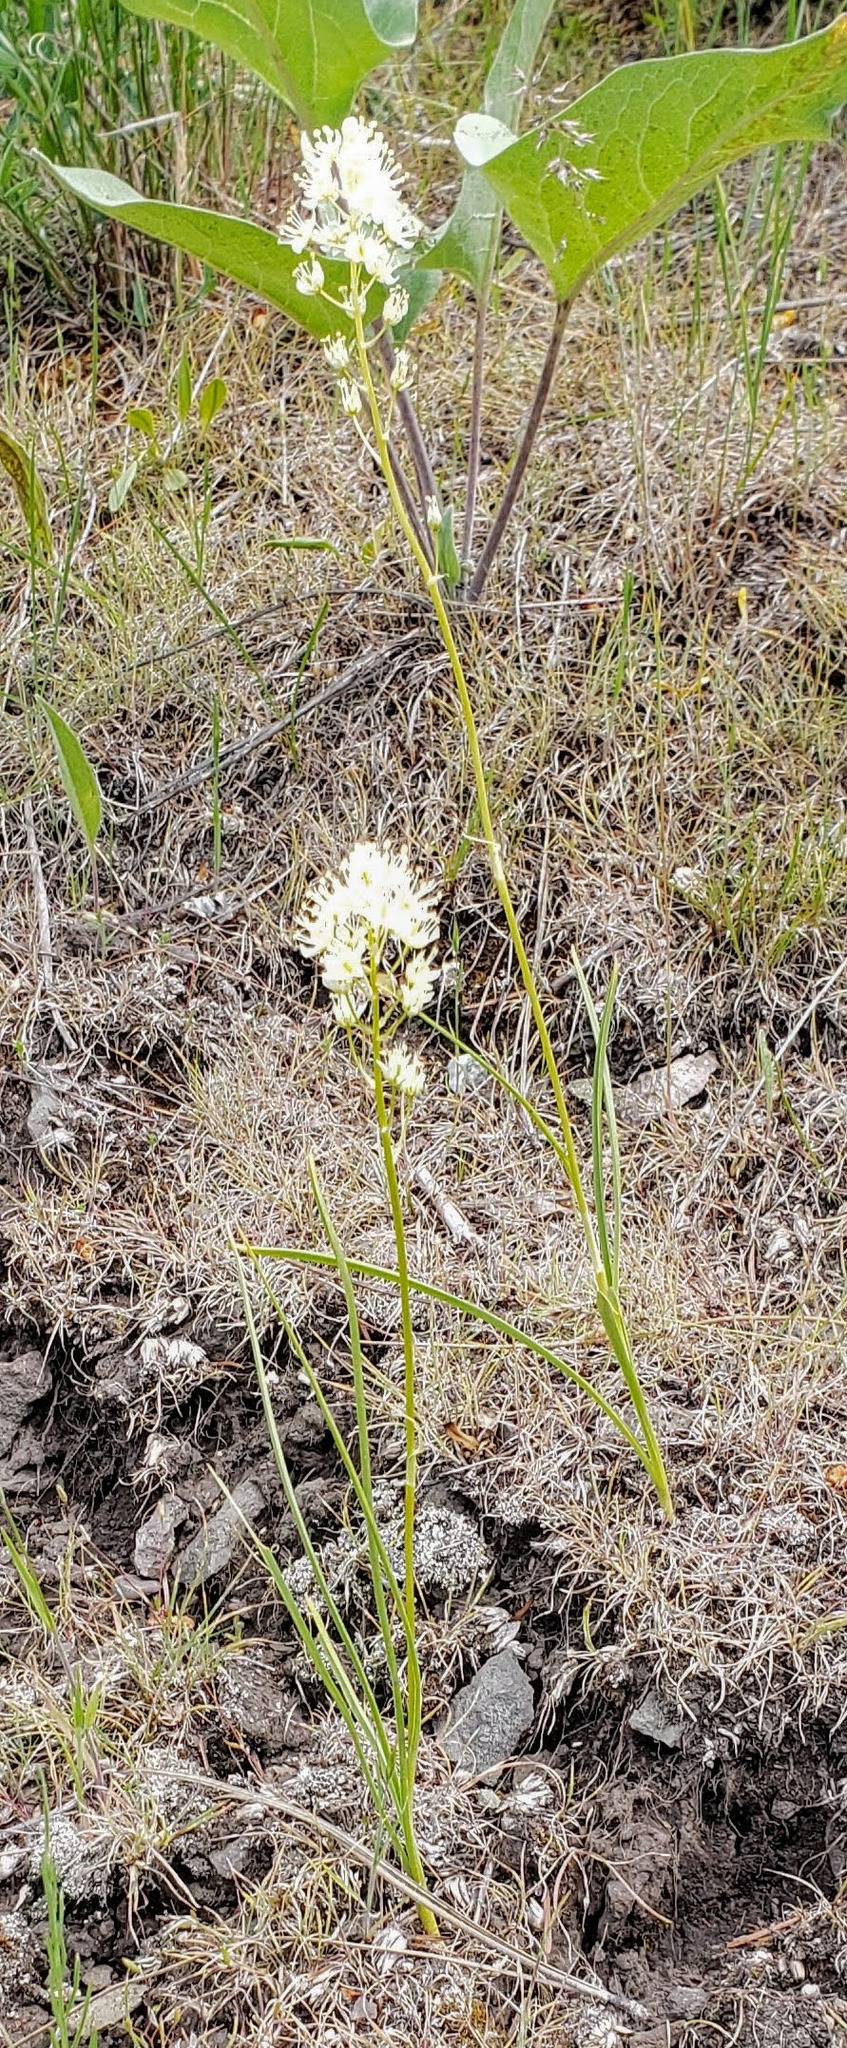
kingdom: Plantae
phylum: Tracheophyta
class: Liliopsida
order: Liliales
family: Melanthiaceae
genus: Toxicoscordion
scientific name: Toxicoscordion venenosum
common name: Meadow death camas
